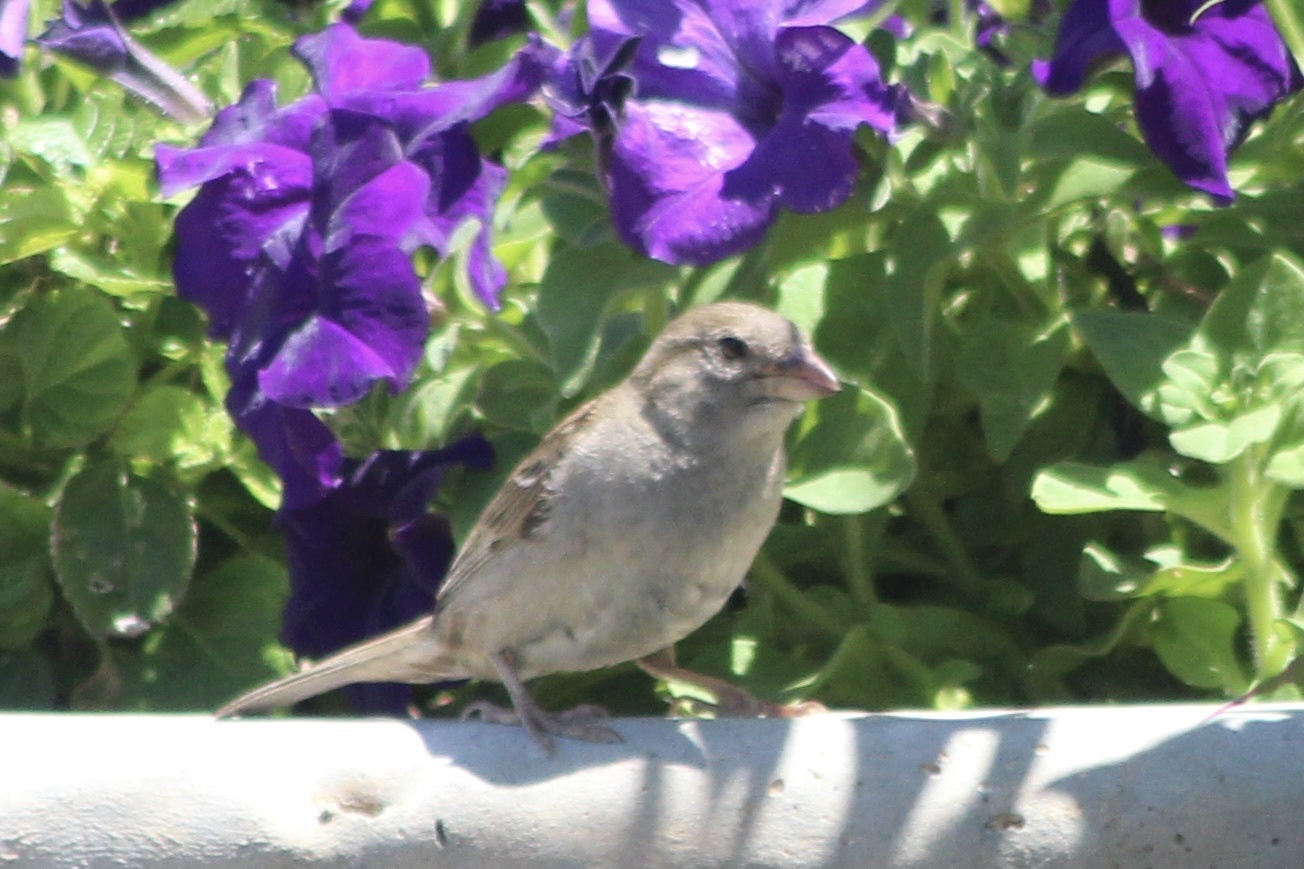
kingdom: Animalia
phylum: Chordata
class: Aves
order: Passeriformes
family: Passeridae
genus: Passer
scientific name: Passer domesticus
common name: House sparrow
